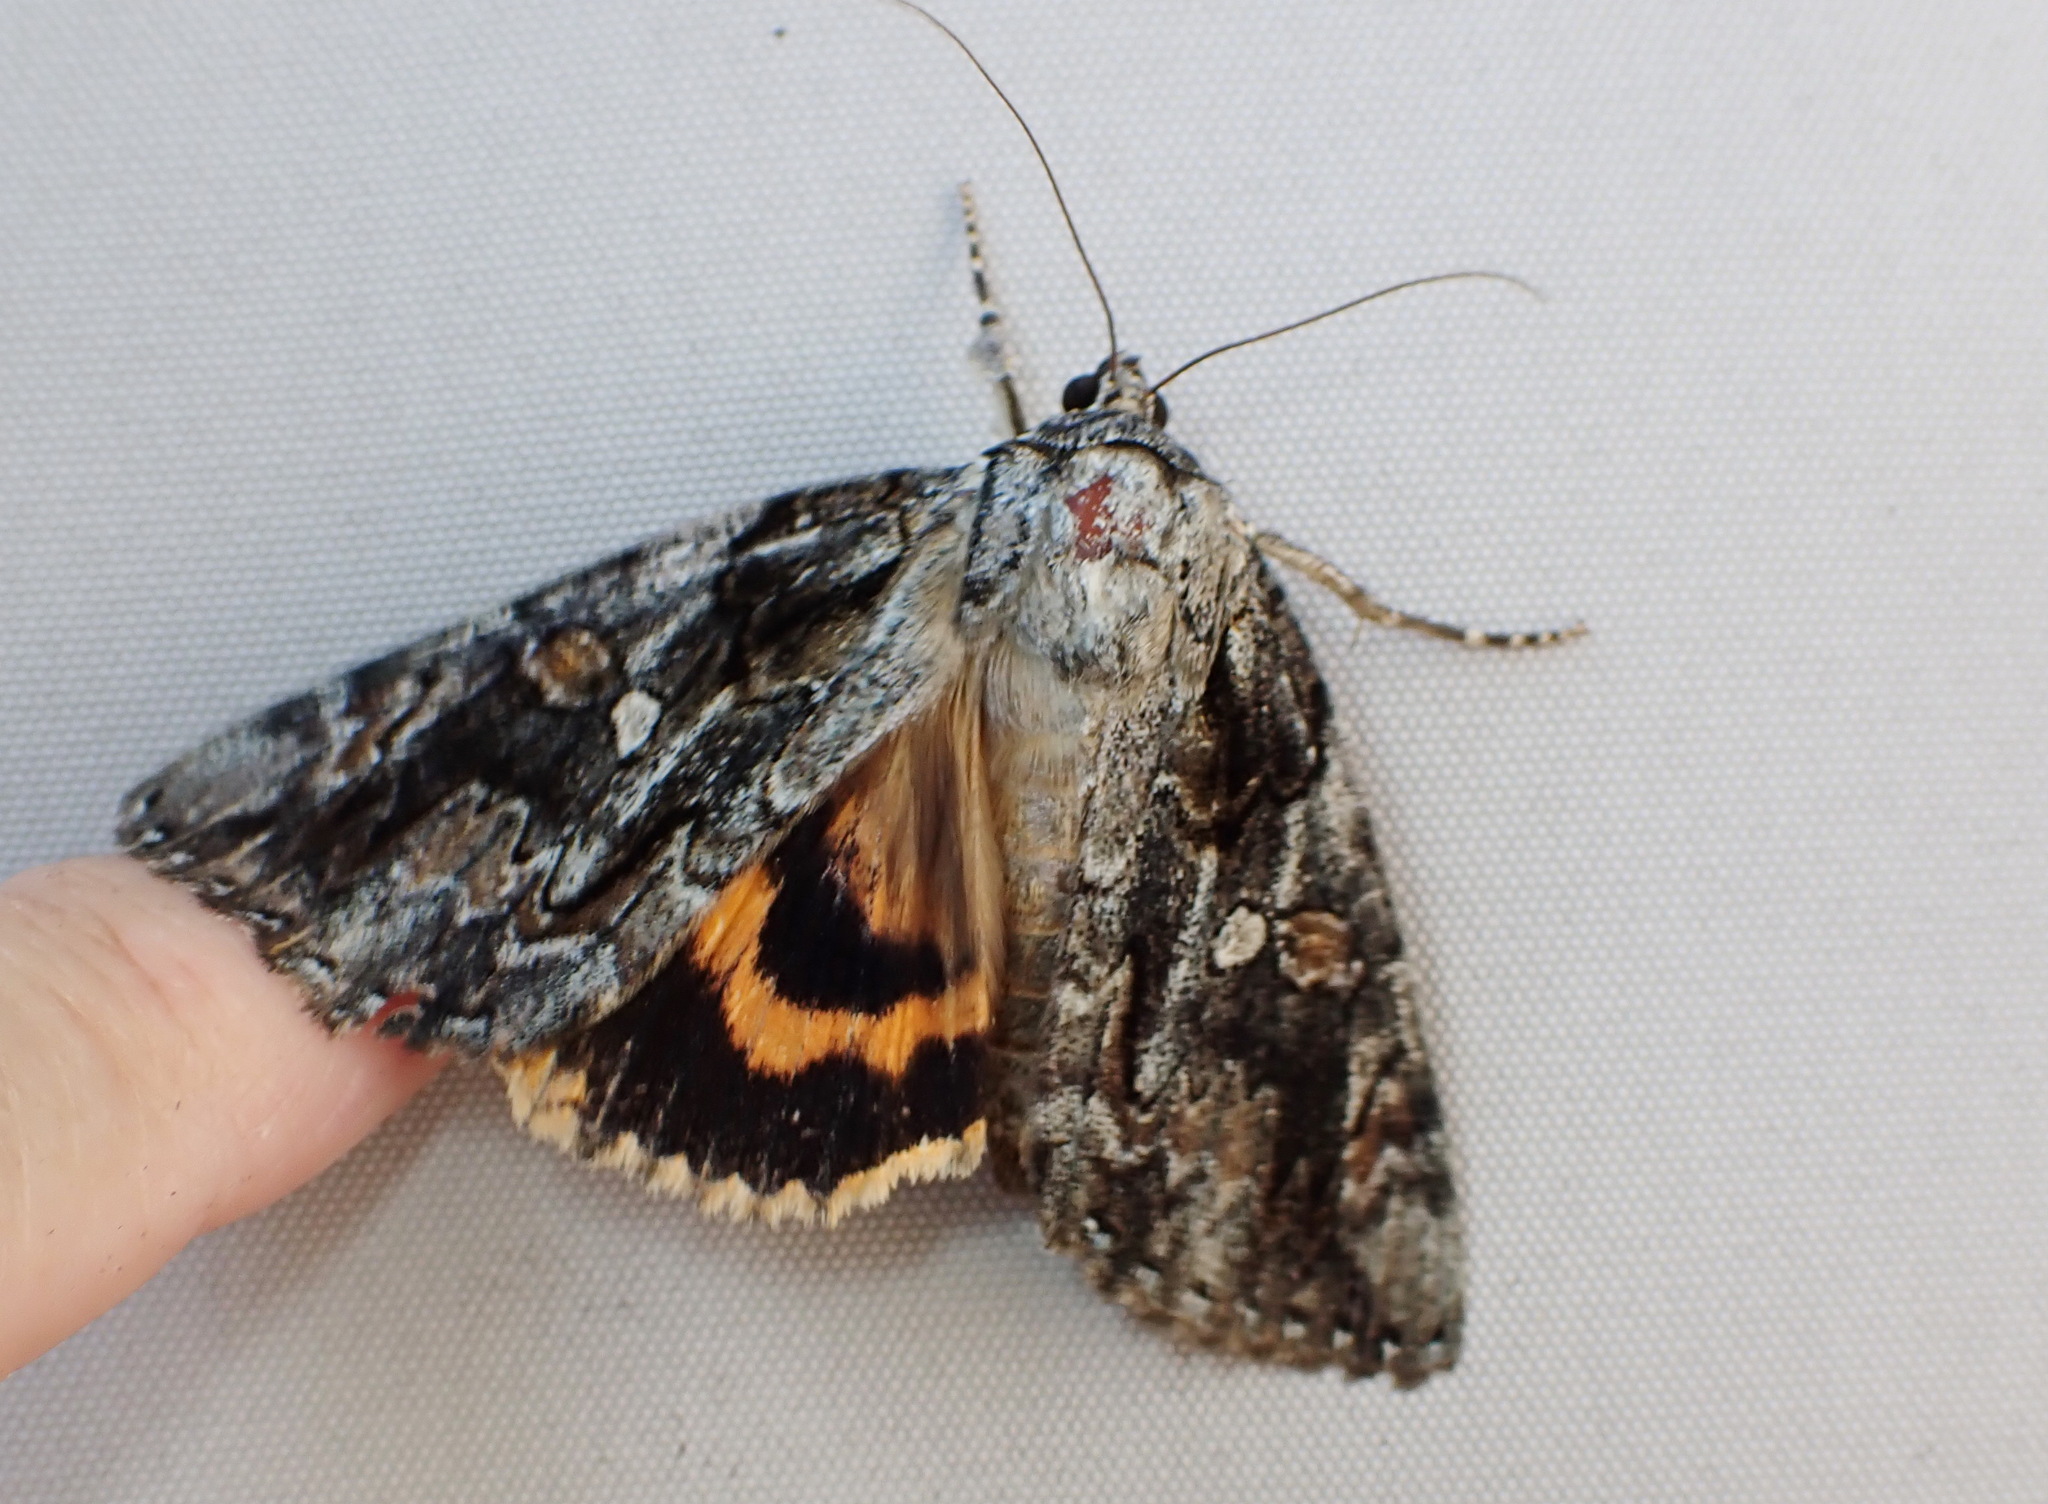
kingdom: Animalia
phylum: Arthropoda
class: Insecta
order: Lepidoptera
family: Erebidae
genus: Catocala
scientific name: Catocala neogama
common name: Bride underwing
